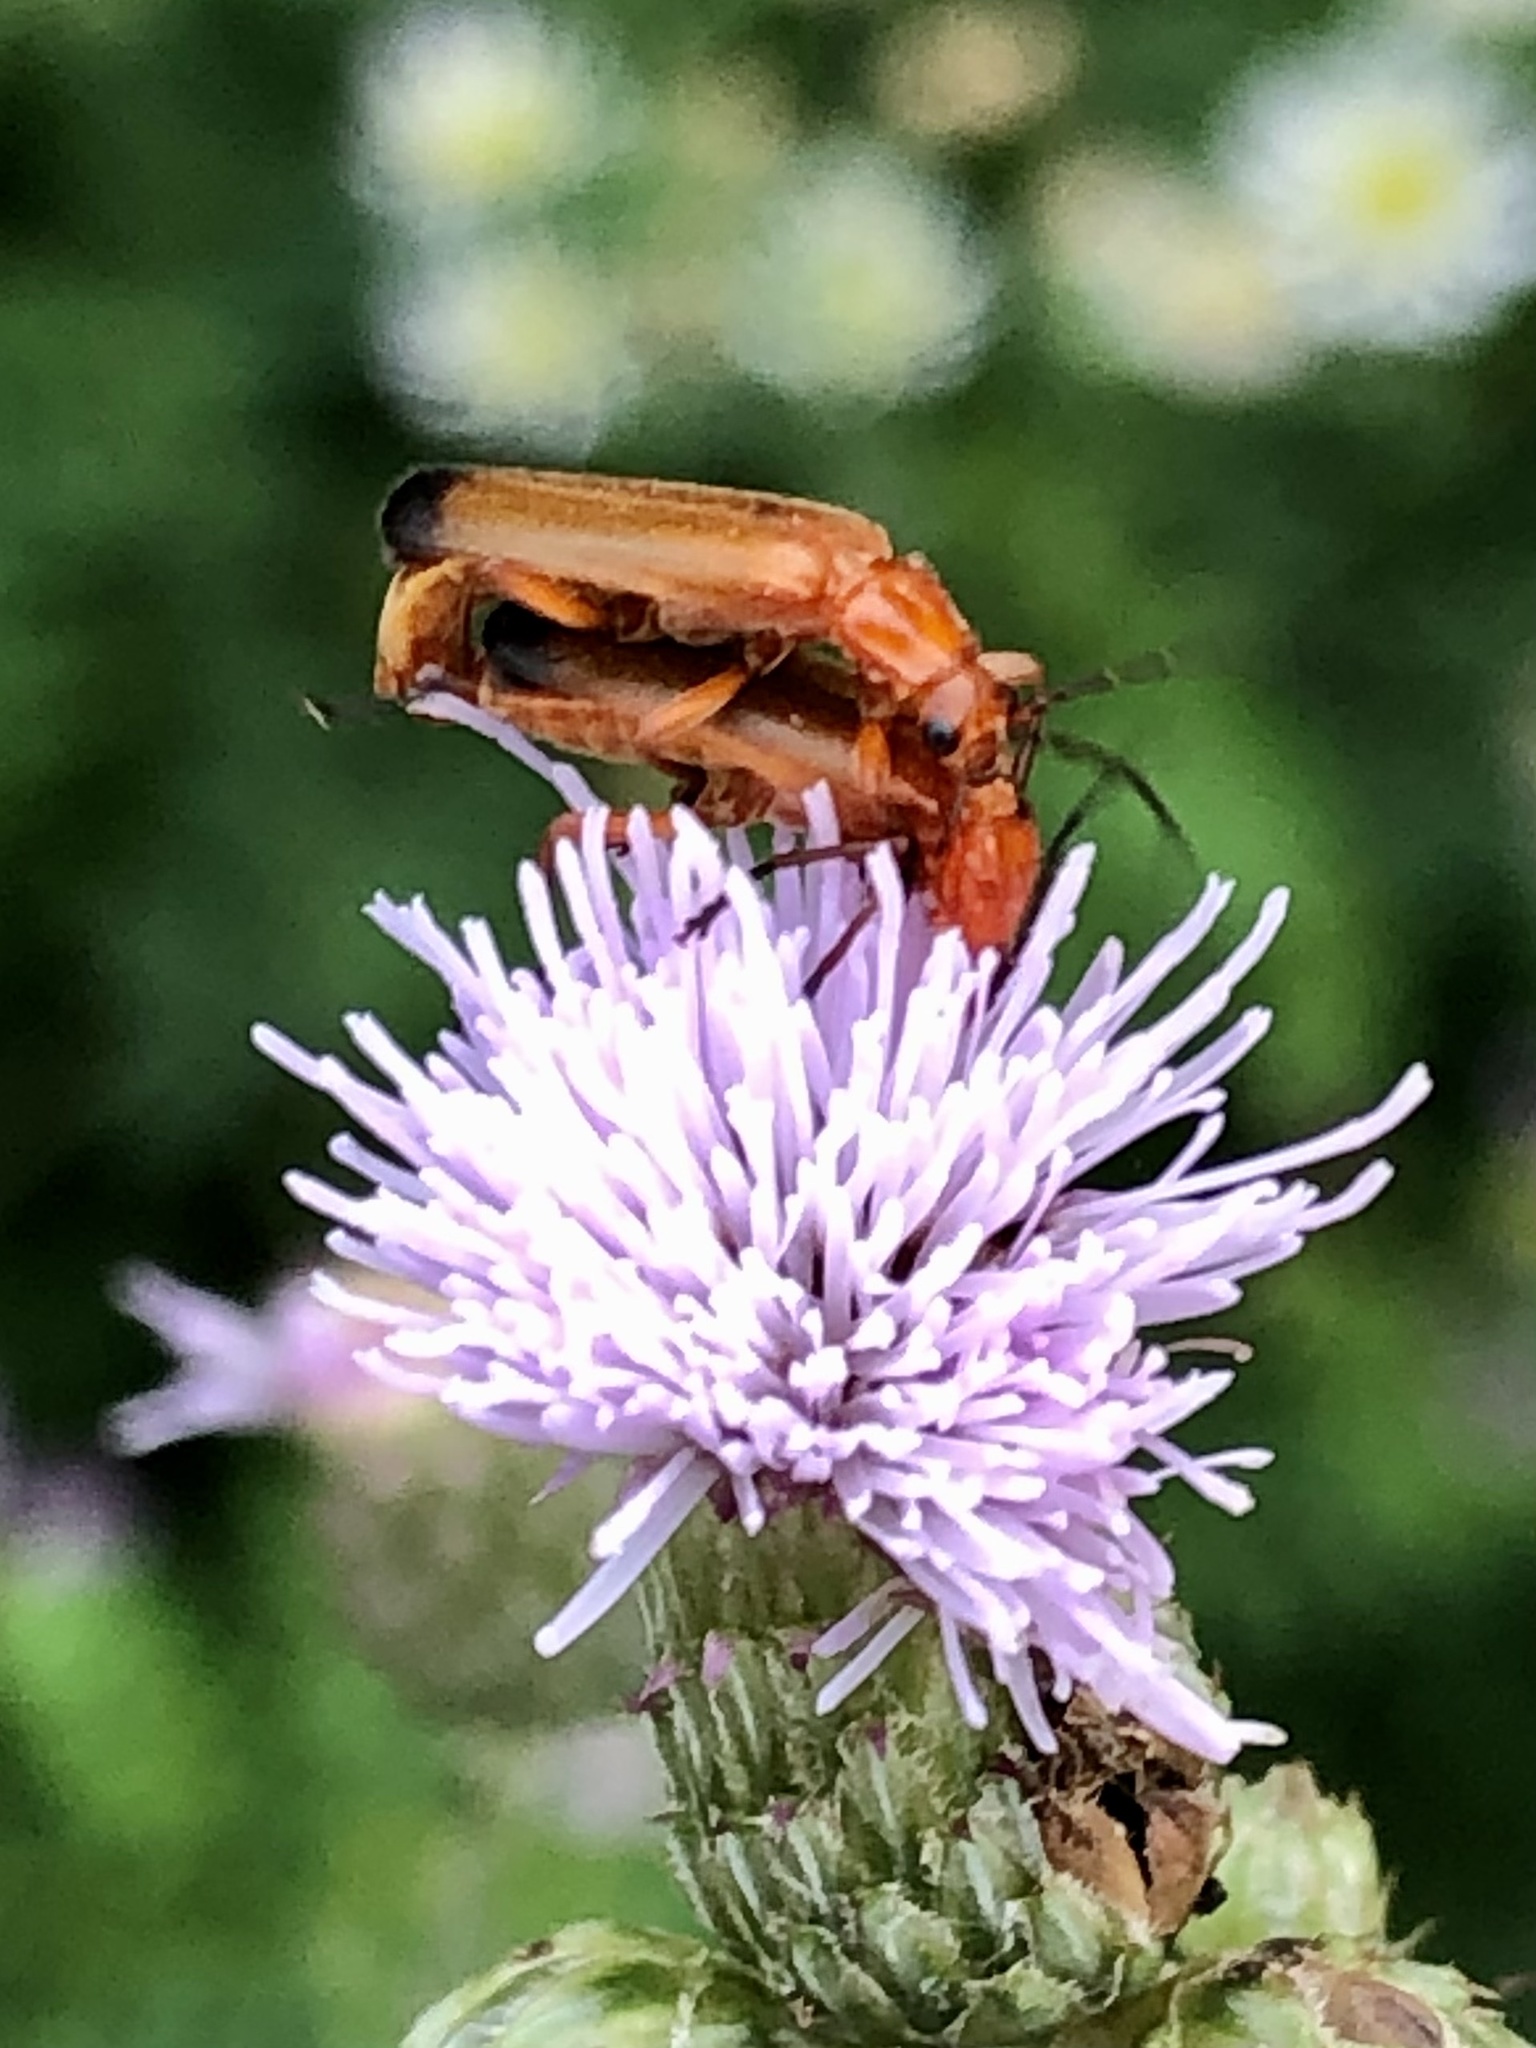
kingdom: Animalia
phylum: Arthropoda
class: Insecta
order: Coleoptera
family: Cantharidae
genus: Rhagonycha
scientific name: Rhagonycha fulva
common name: Common red soldier beetle
